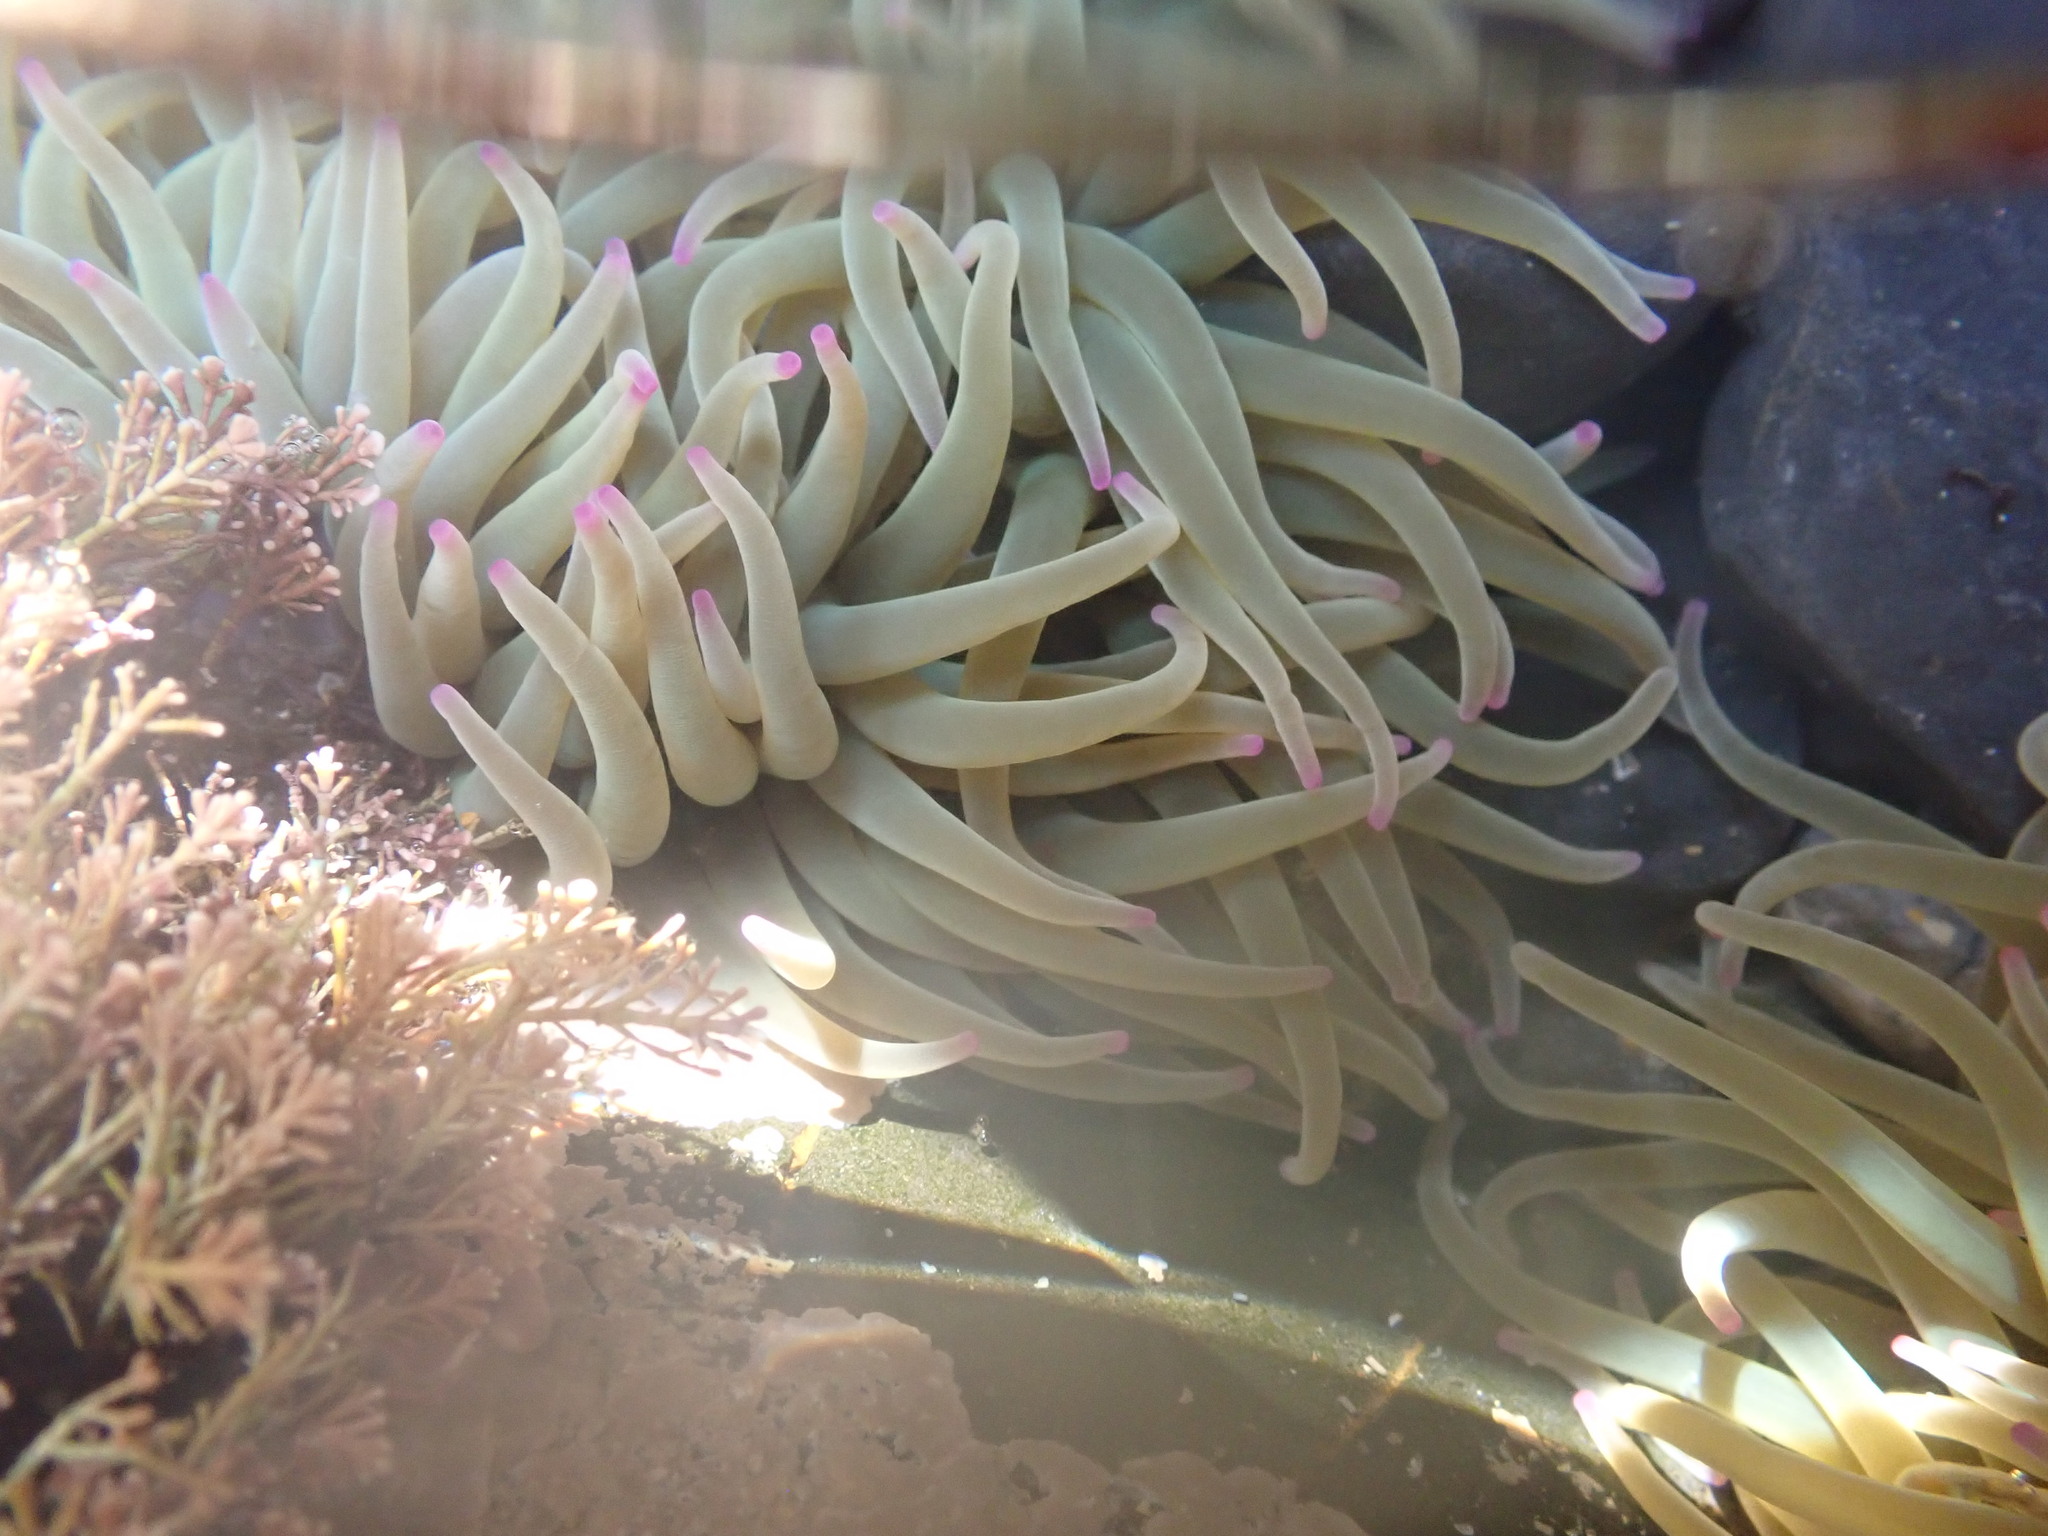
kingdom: Animalia
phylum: Cnidaria
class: Anthozoa
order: Actiniaria
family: Actiniidae
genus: Anemonia
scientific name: Anemonia viridis
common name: Snakelocks anemone
